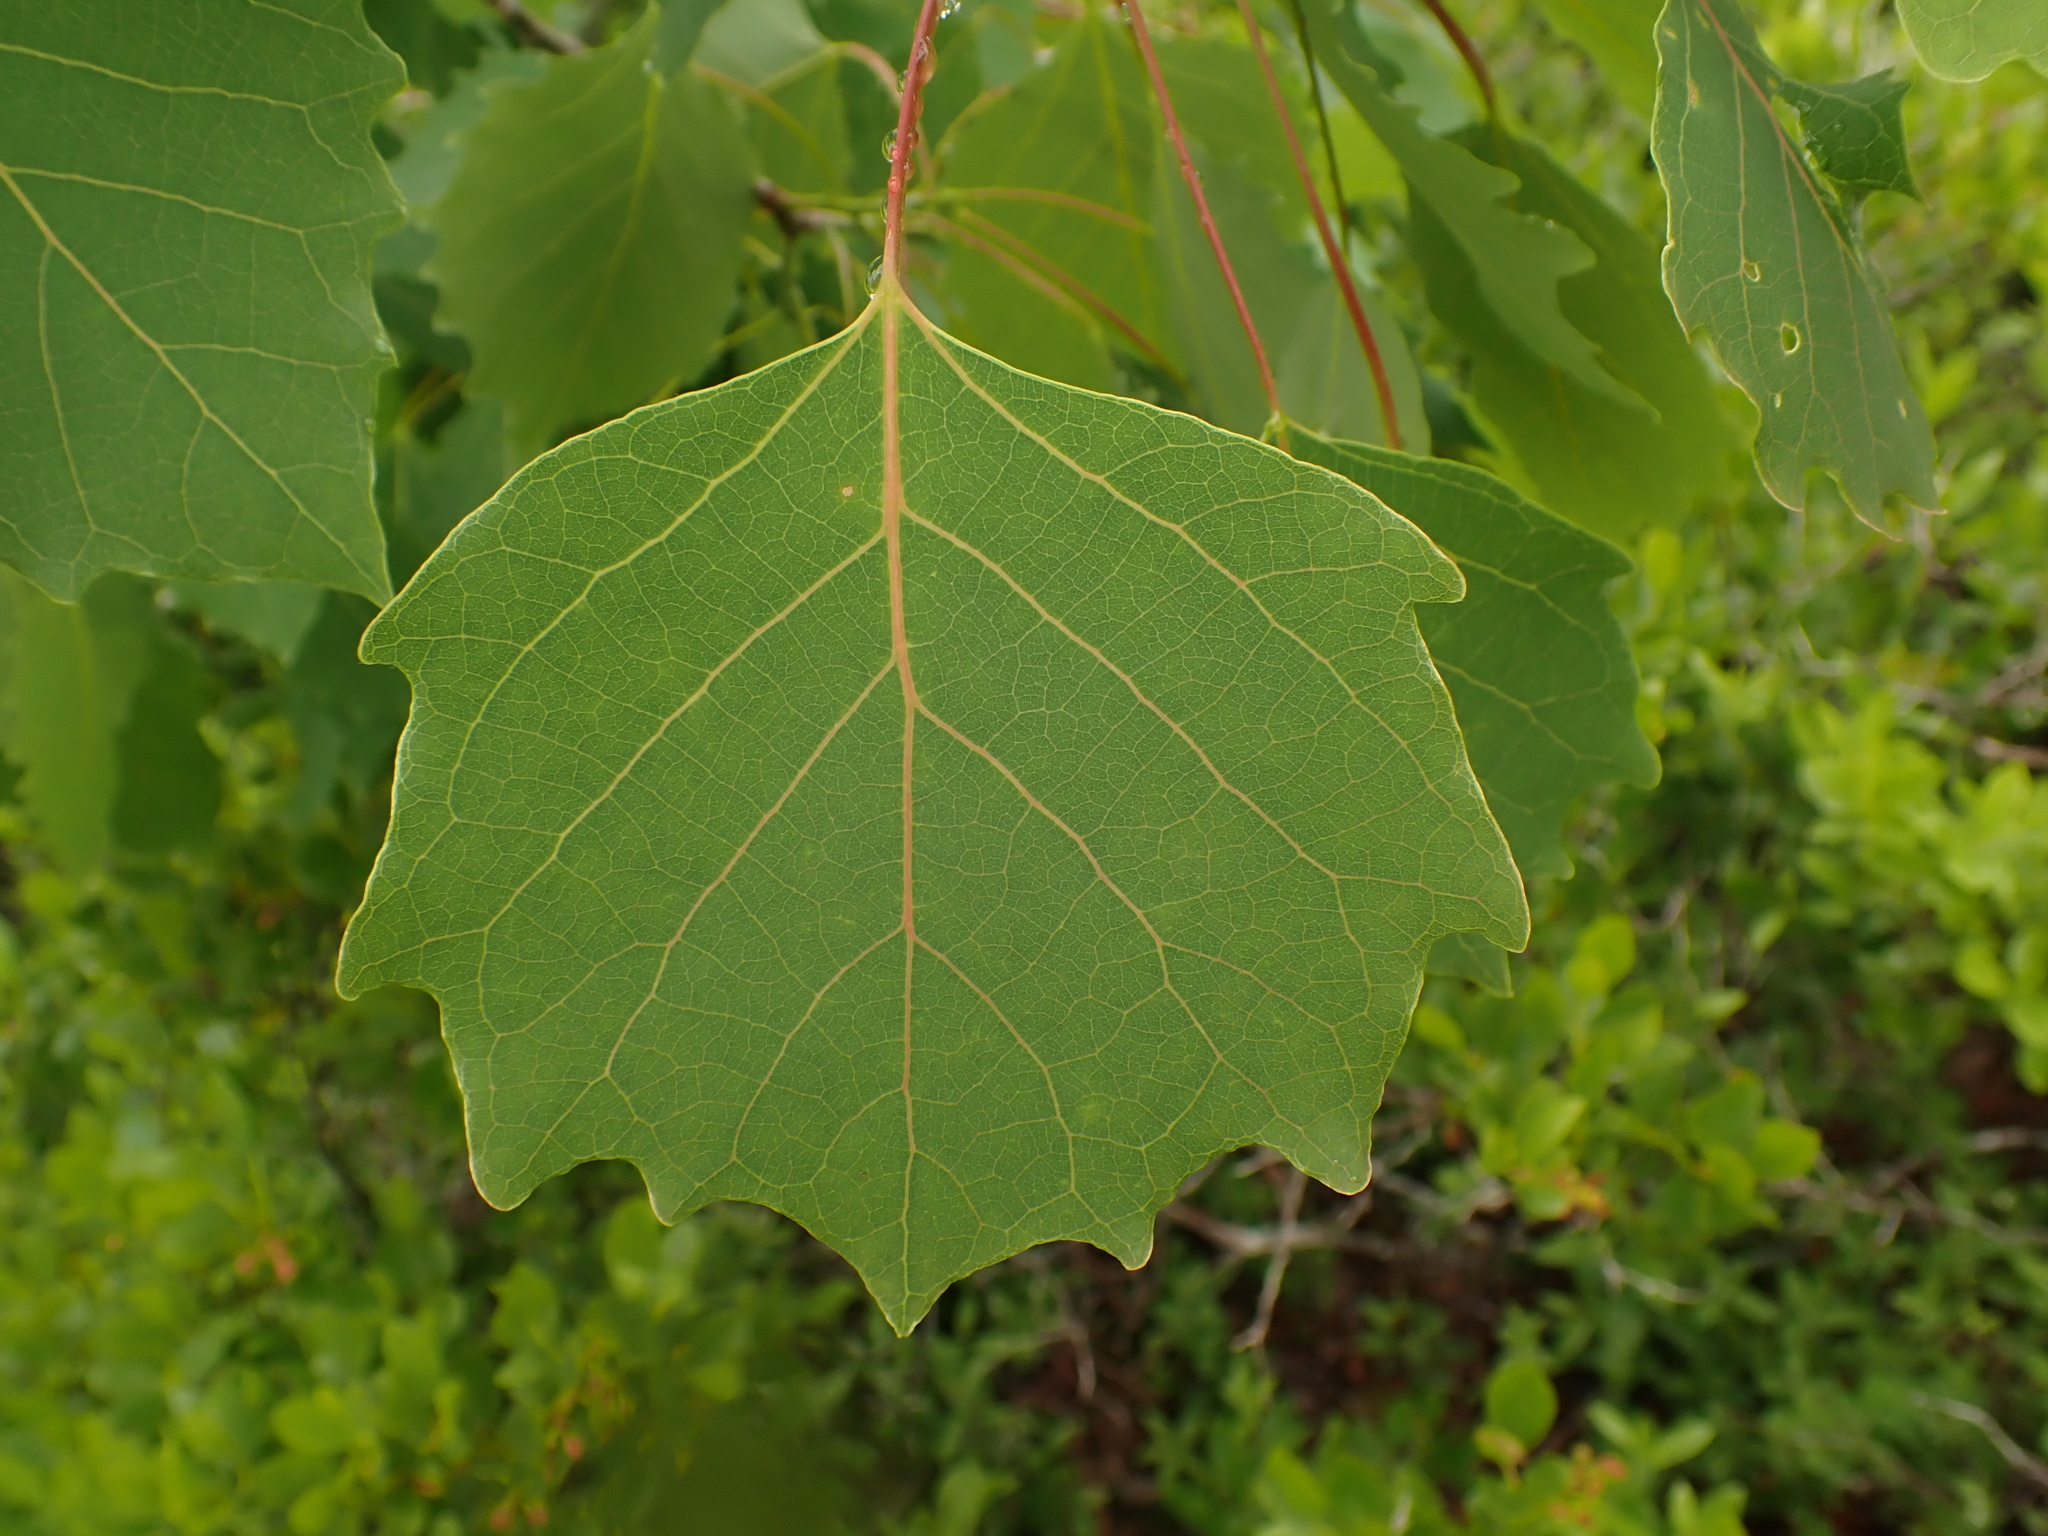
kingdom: Plantae
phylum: Tracheophyta
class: Magnoliopsida
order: Malpighiales
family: Salicaceae
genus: Populus
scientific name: Populus grandidentata
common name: Bigtooth aspen
